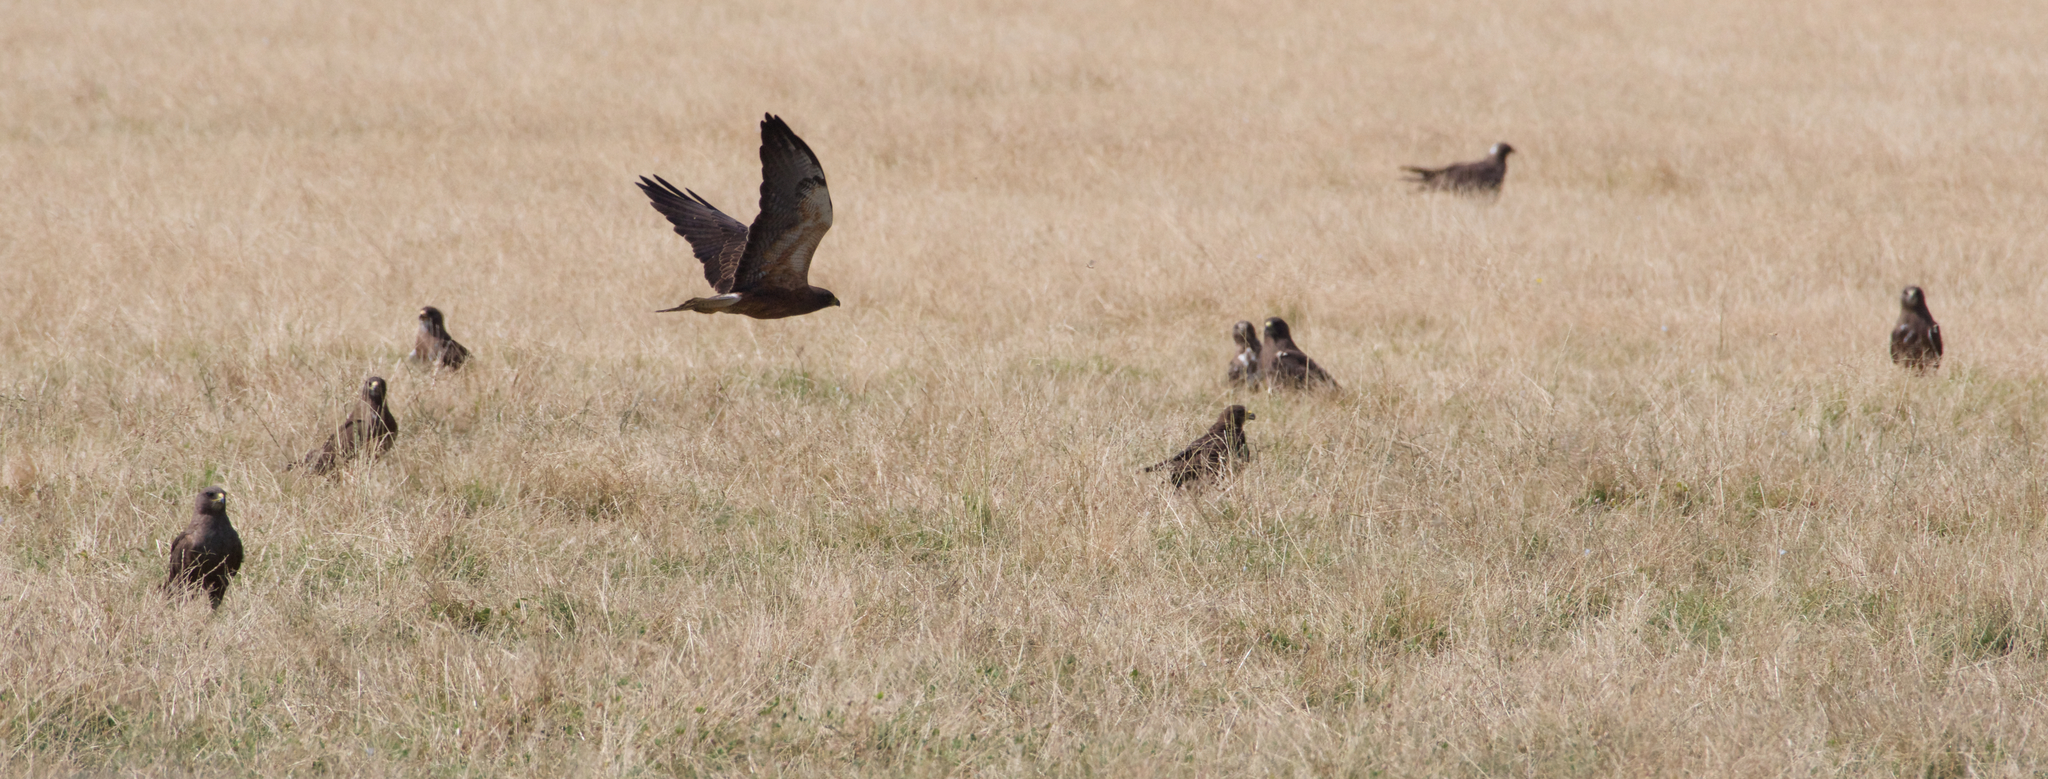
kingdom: Animalia
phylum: Chordata
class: Aves
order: Accipitriformes
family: Accipitridae
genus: Buteo
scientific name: Buteo swainsoni
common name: Swainson's hawk
